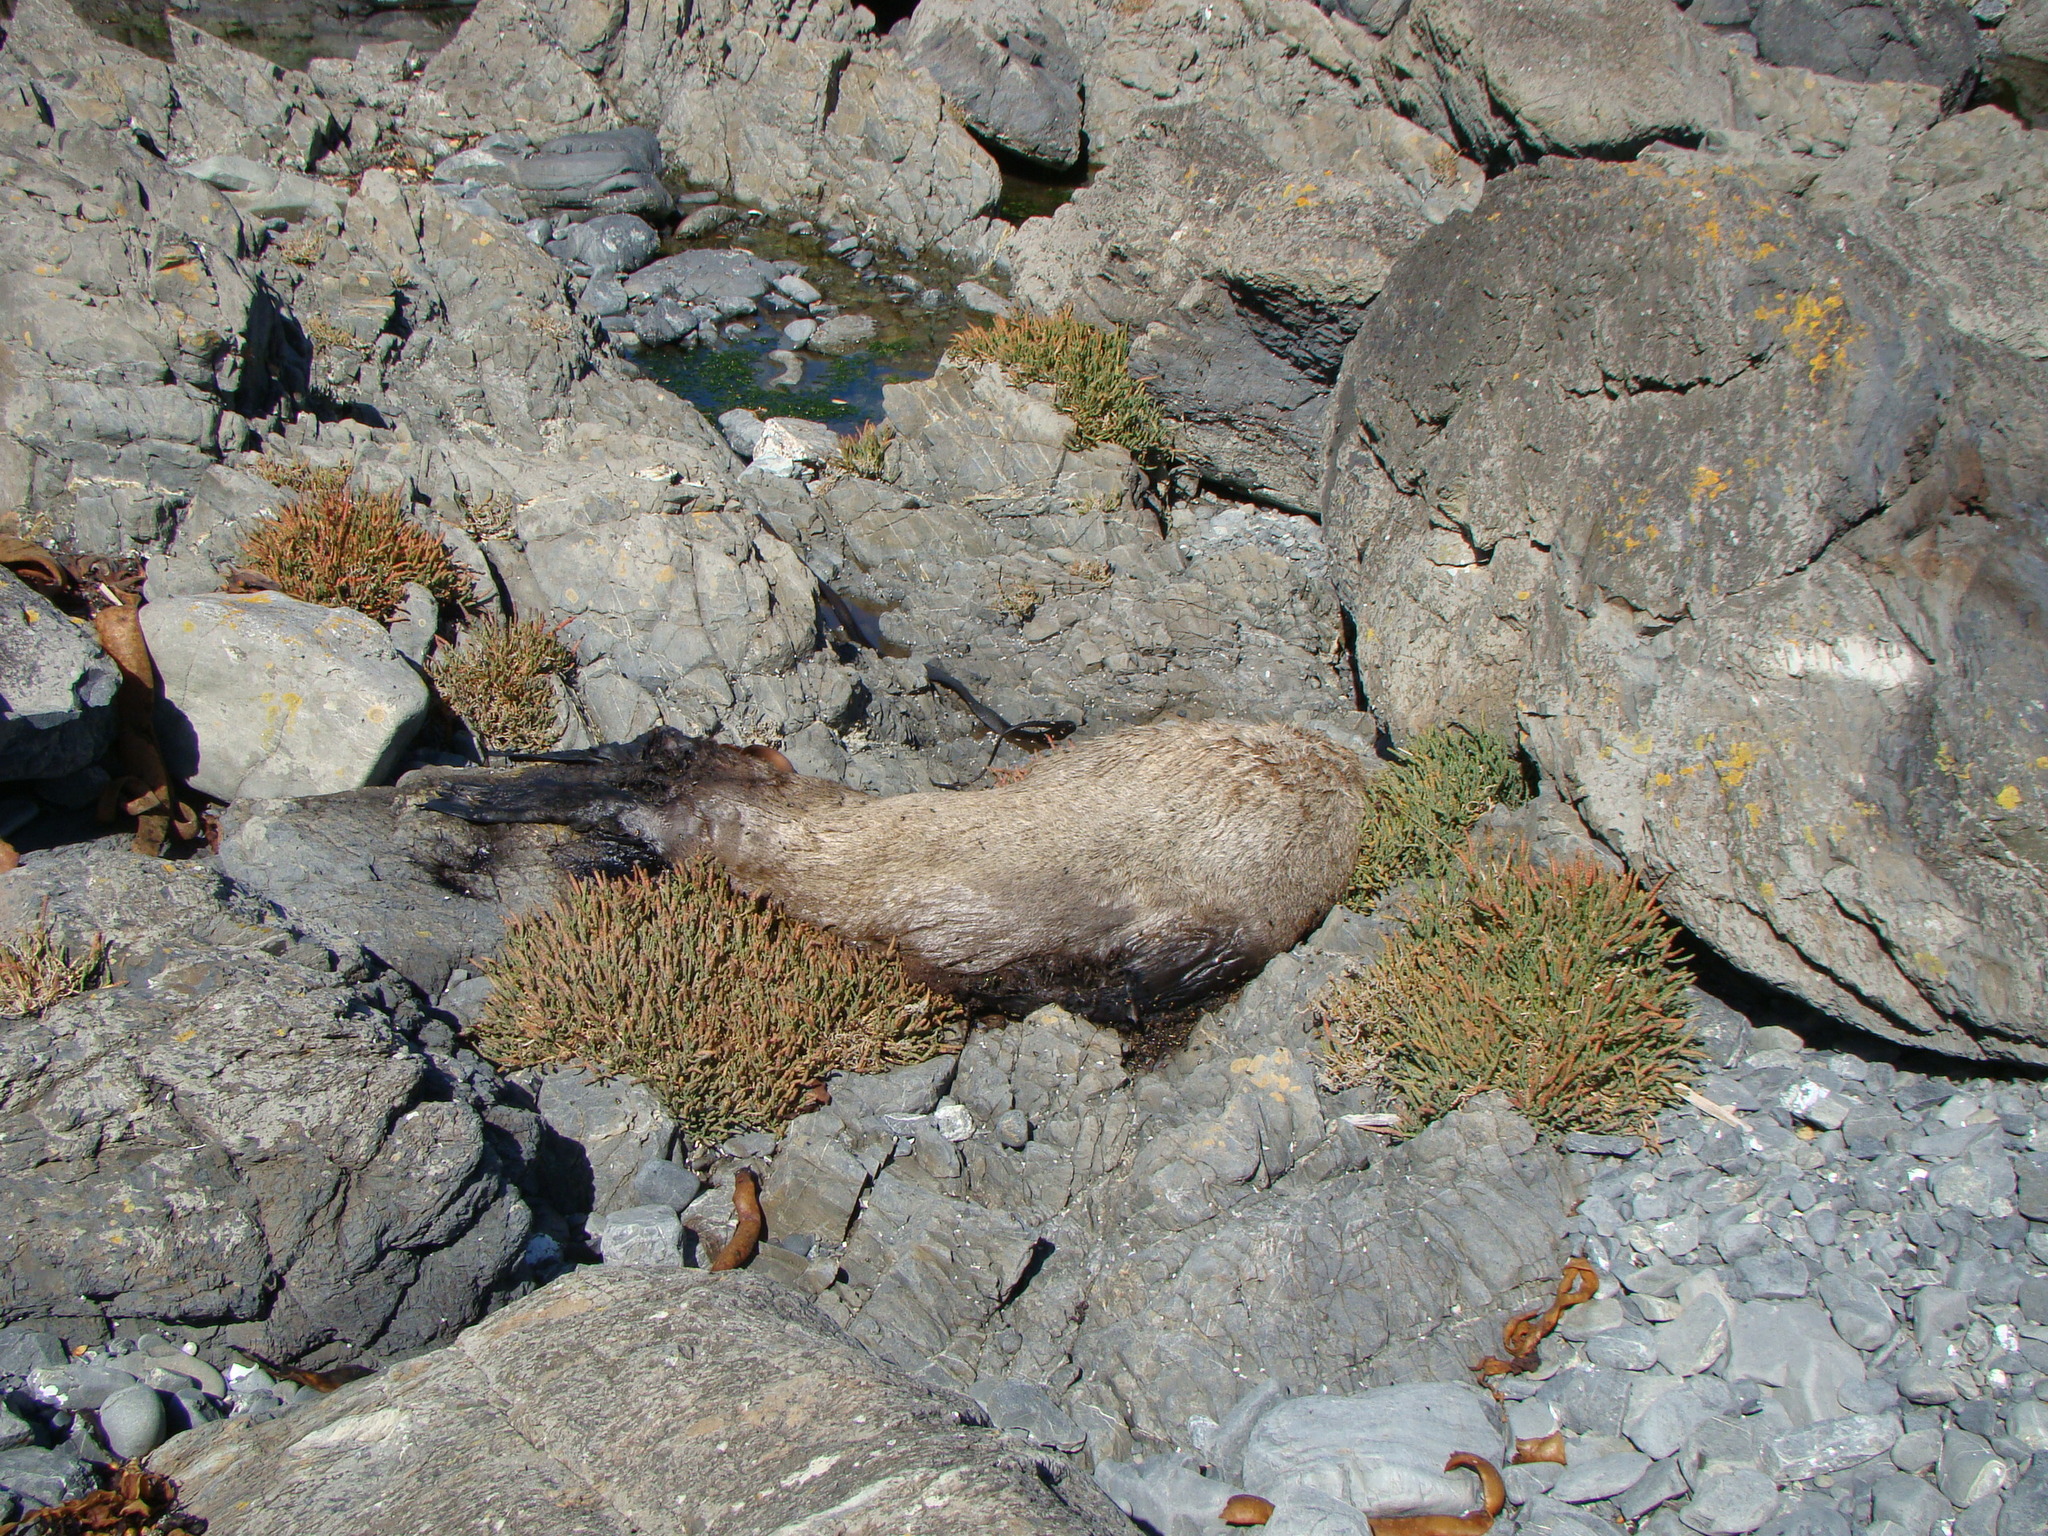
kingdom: Animalia
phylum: Chordata
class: Mammalia
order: Carnivora
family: Otariidae
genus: Arctocephalus
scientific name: Arctocephalus forsteri
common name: New zealand fur seal
